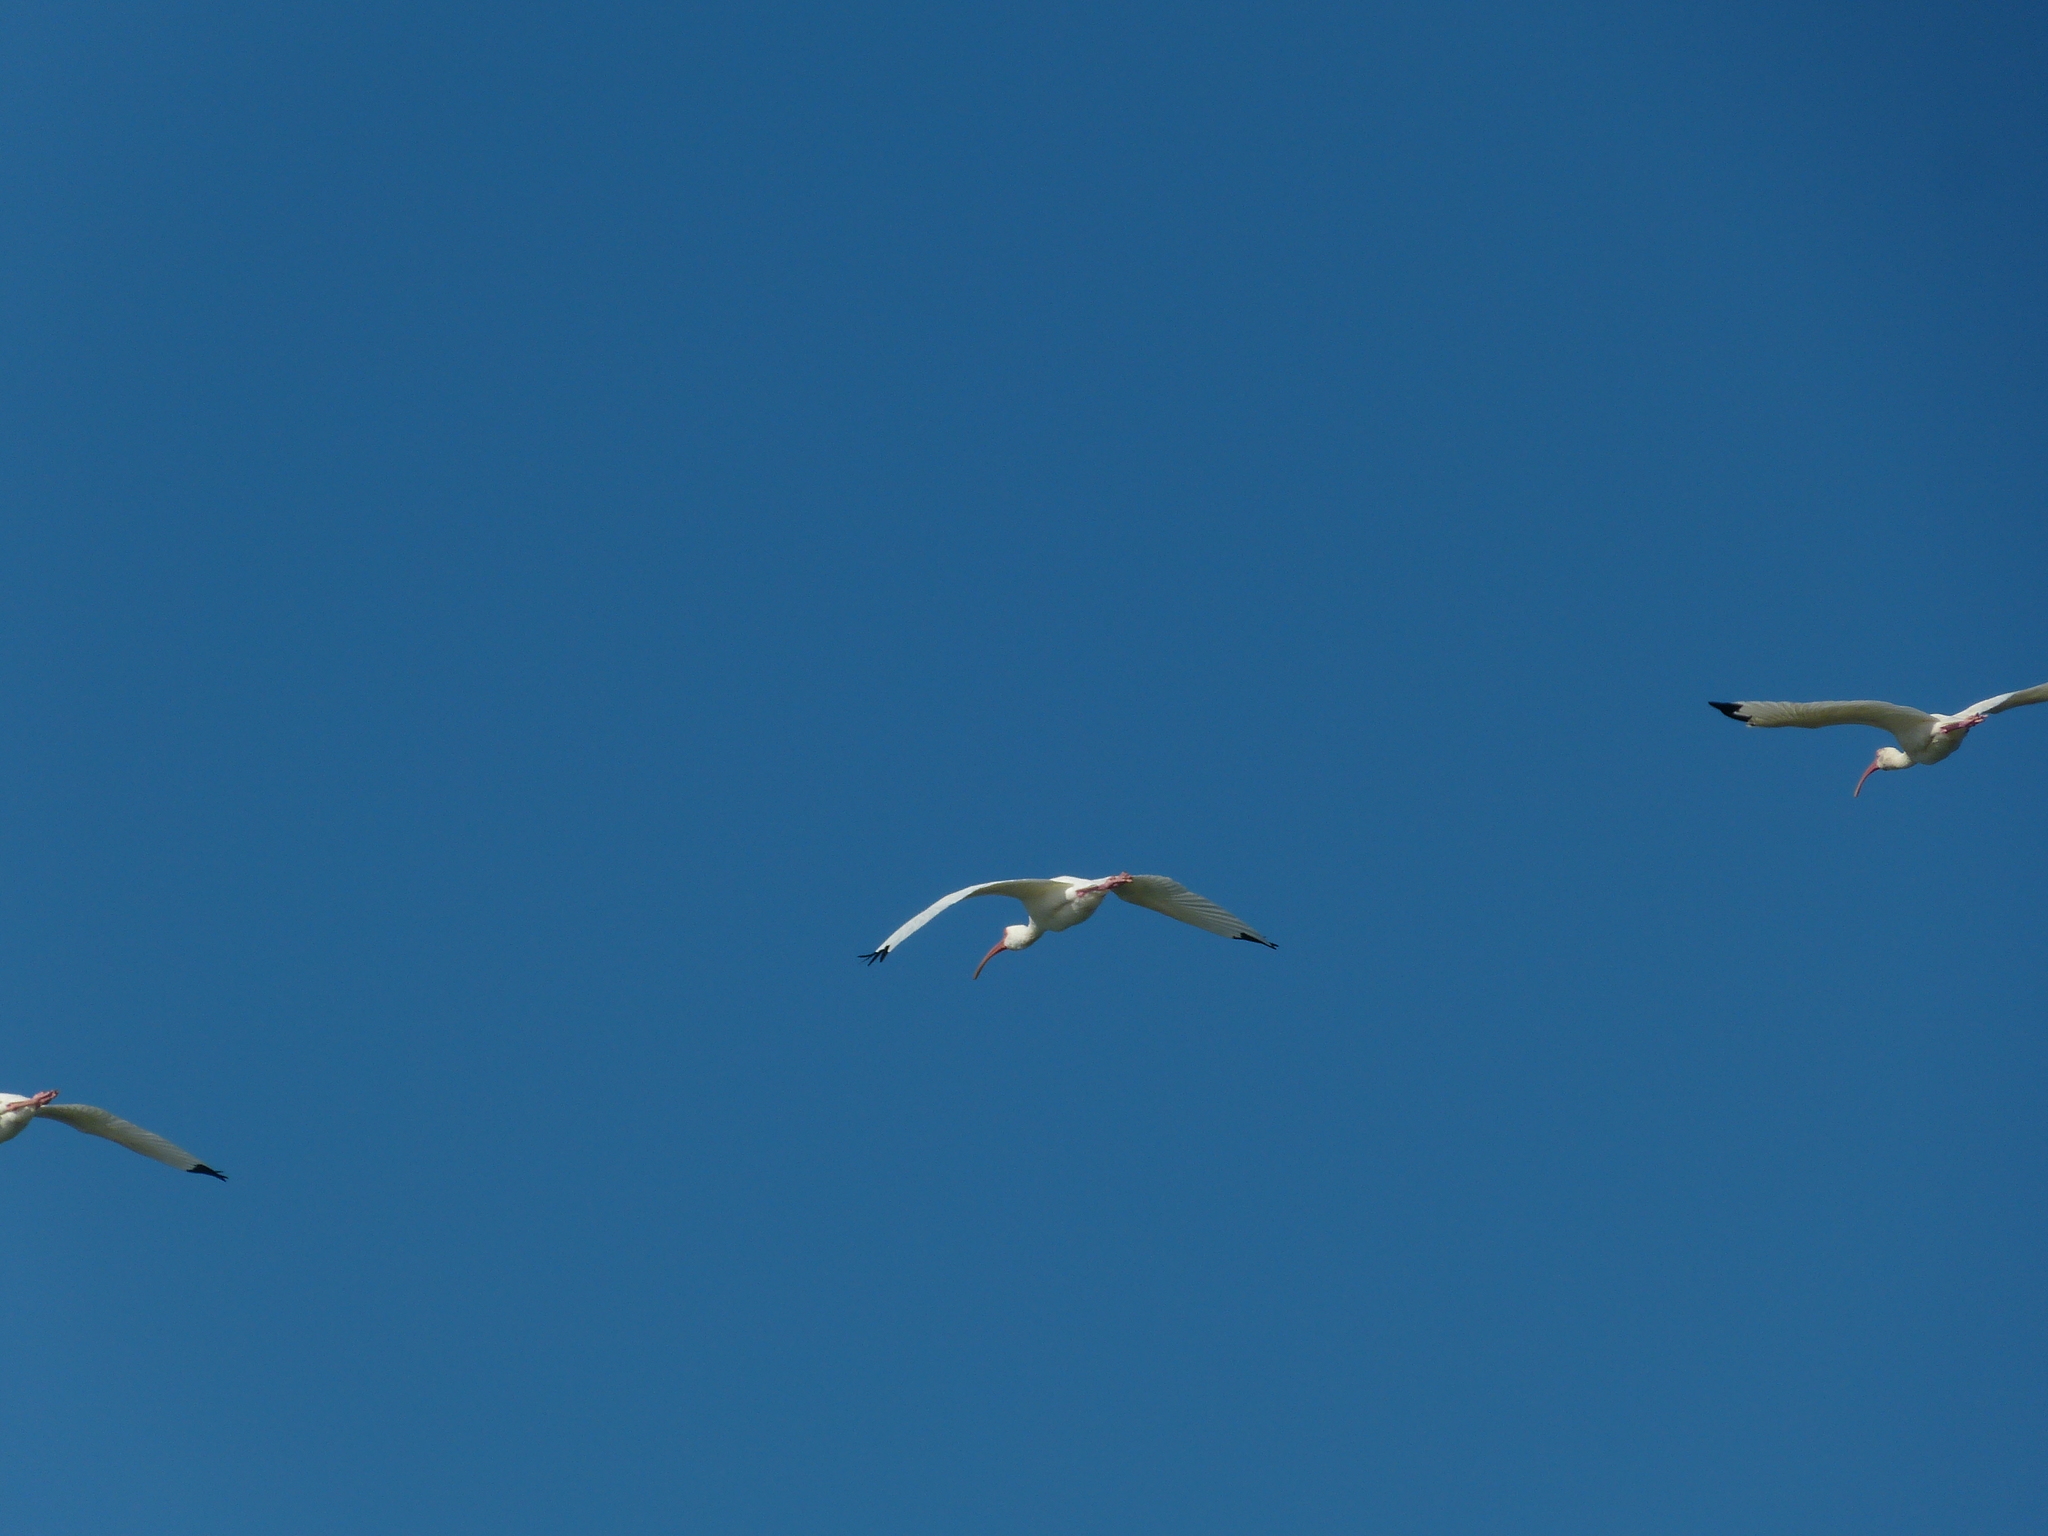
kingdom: Animalia
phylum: Chordata
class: Aves
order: Pelecaniformes
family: Threskiornithidae
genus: Eudocimus
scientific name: Eudocimus albus
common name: White ibis
